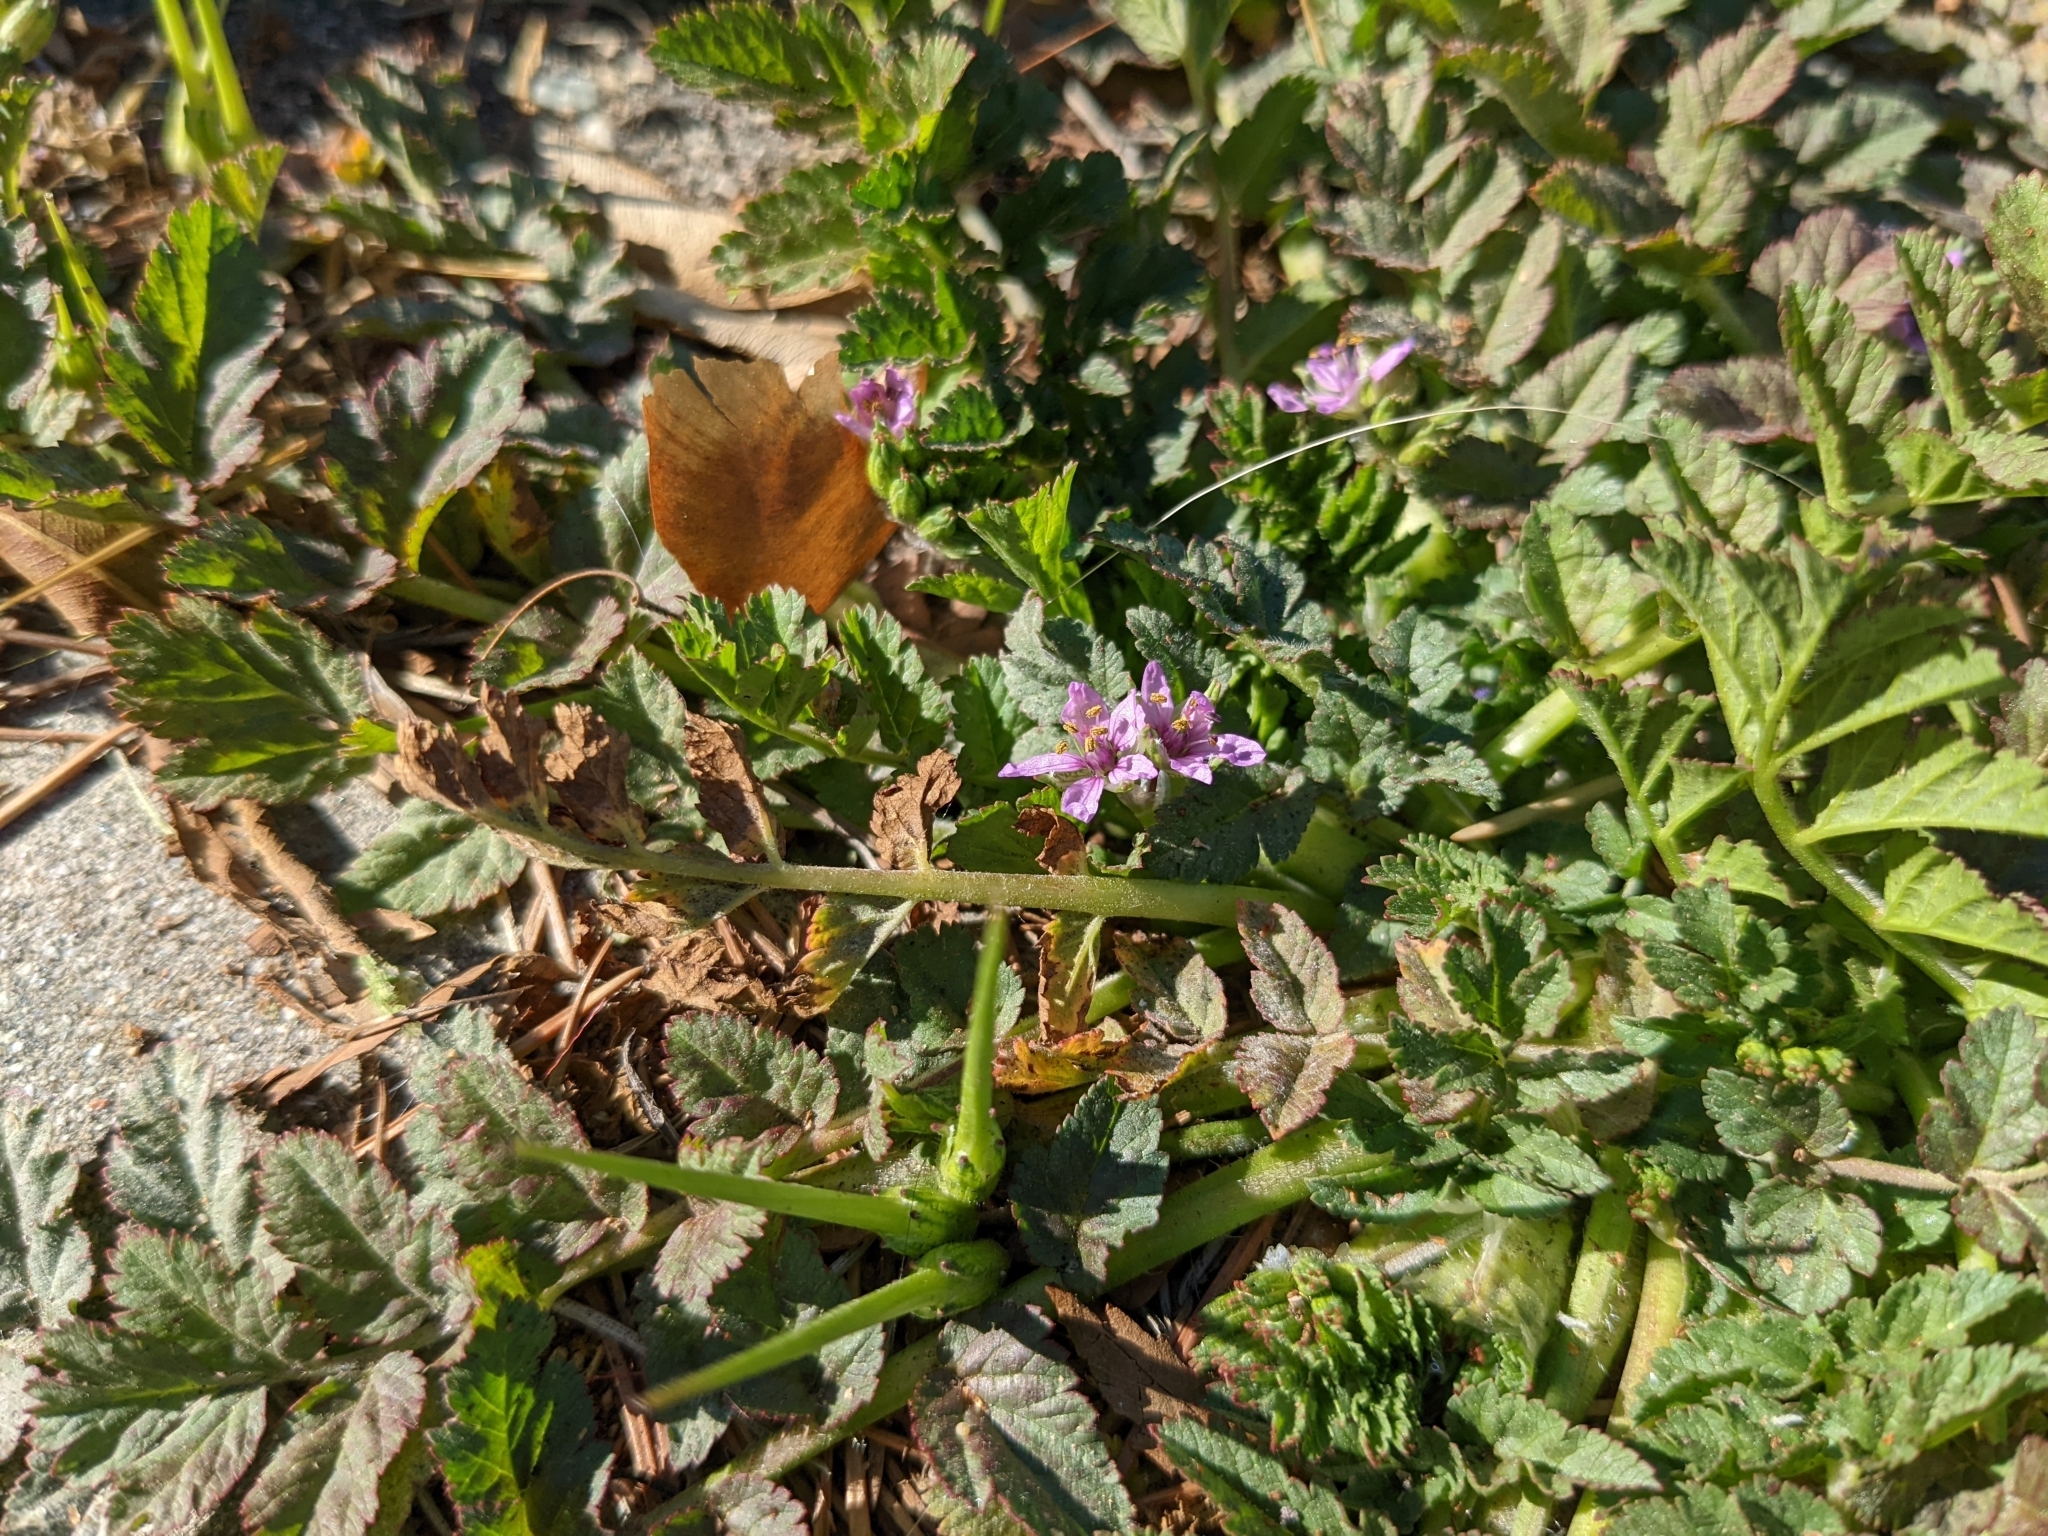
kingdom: Plantae
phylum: Tracheophyta
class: Magnoliopsida
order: Geraniales
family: Geraniaceae
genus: Erodium
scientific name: Erodium moschatum
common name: Musk stork's-bill
